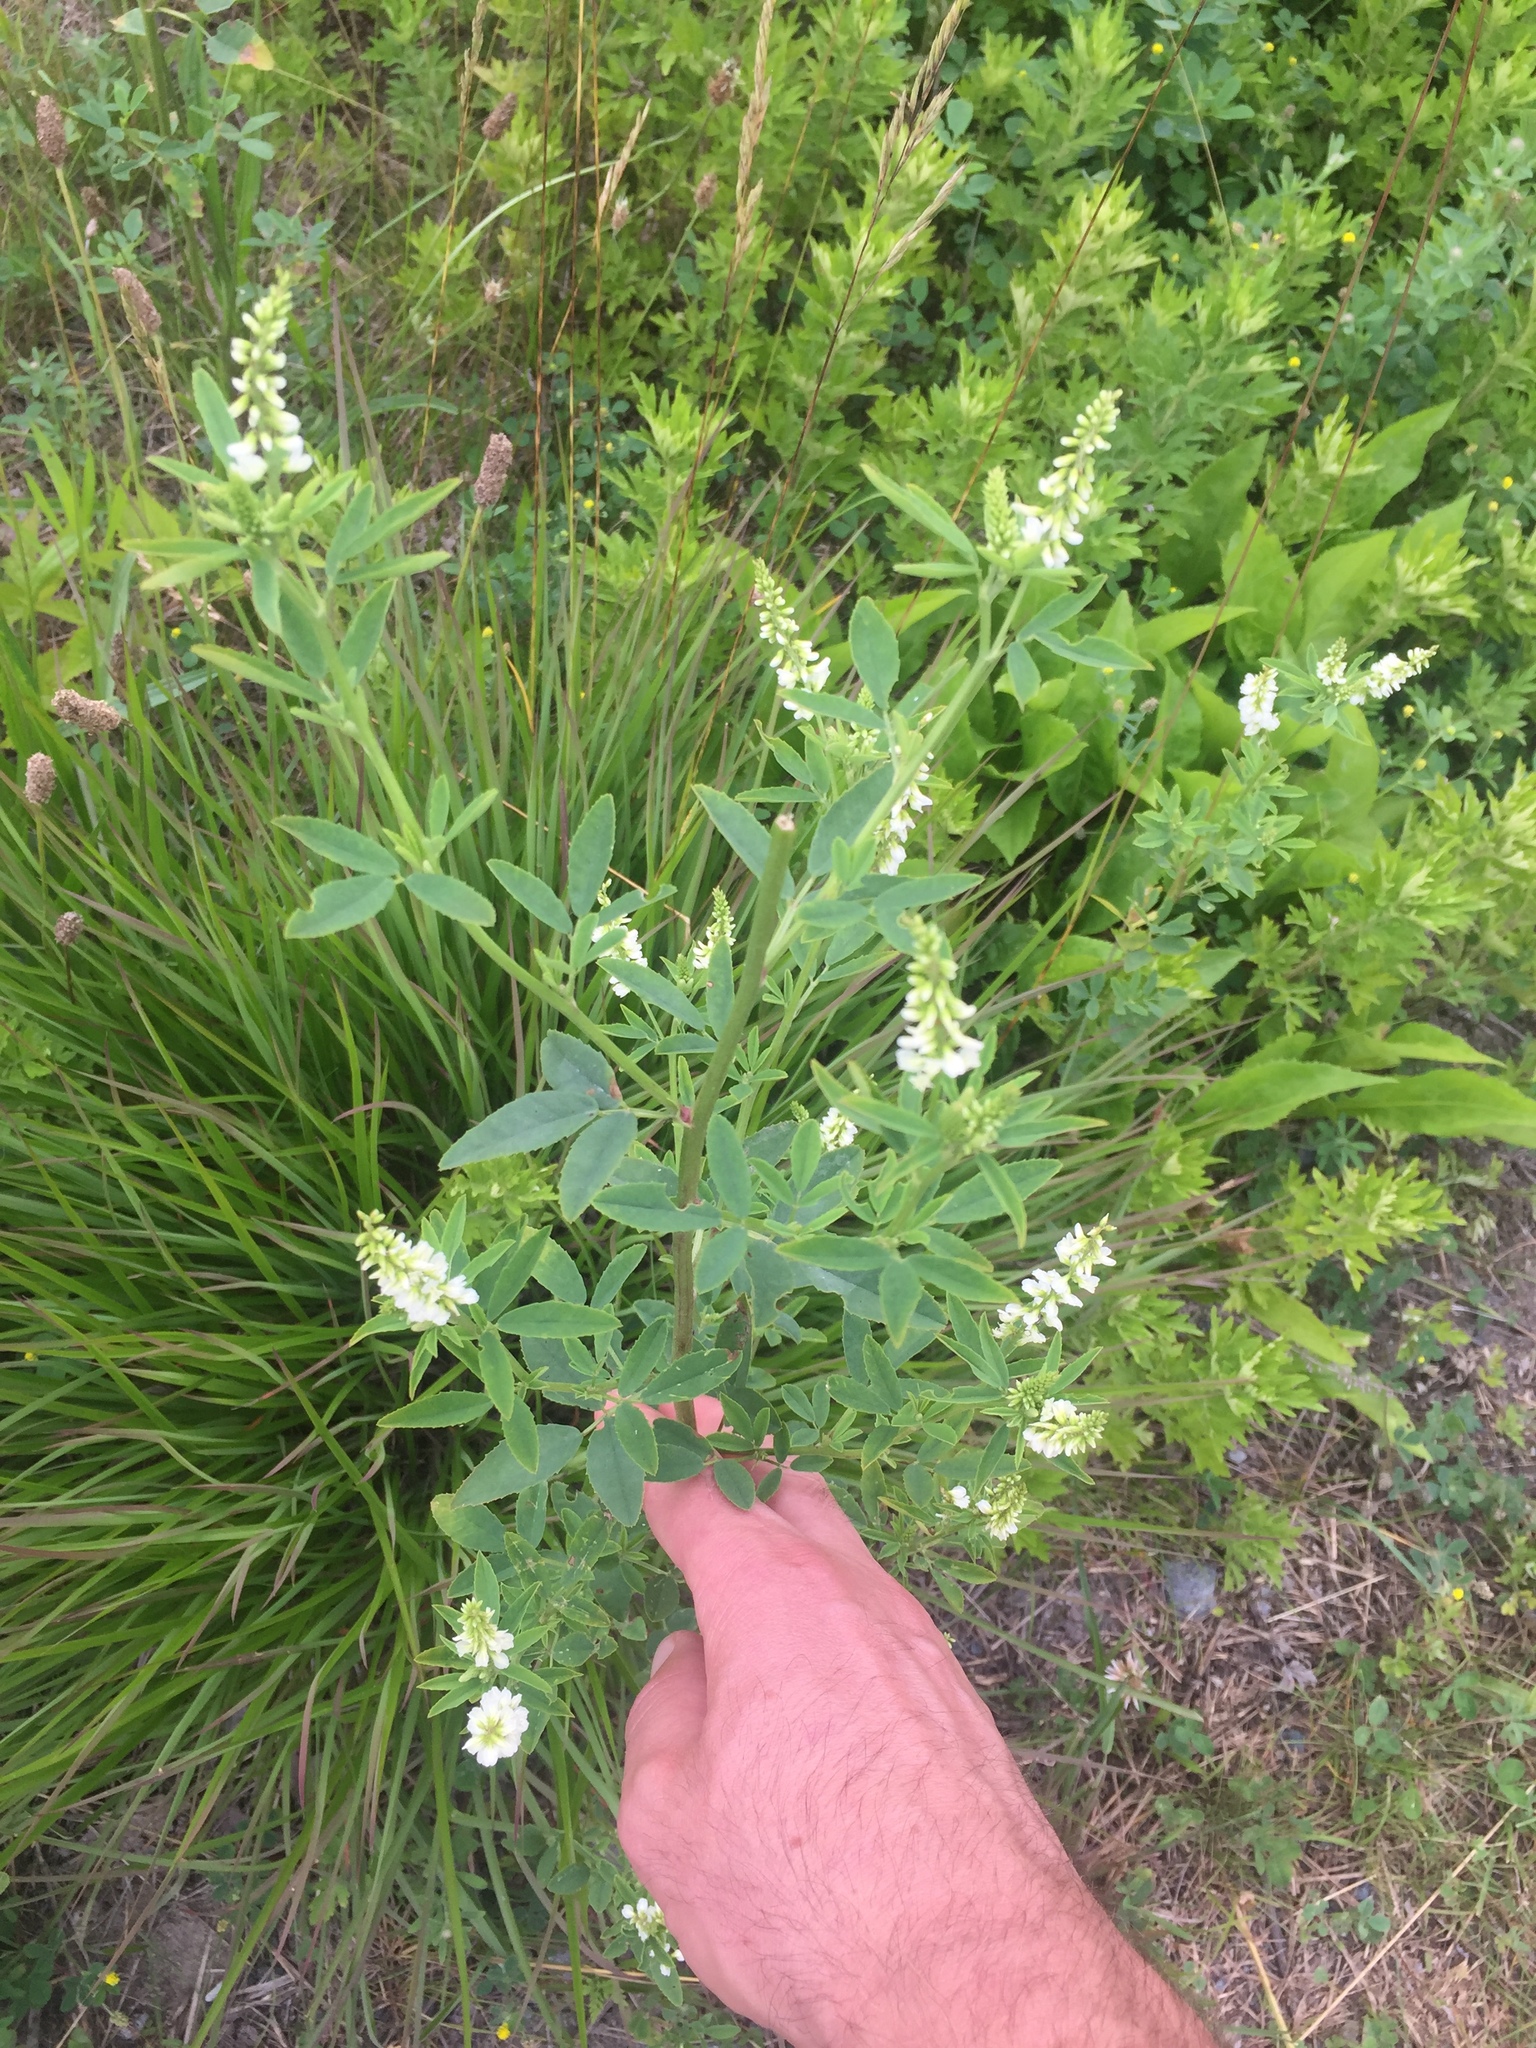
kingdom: Plantae
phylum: Tracheophyta
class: Magnoliopsida
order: Fabales
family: Fabaceae
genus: Melilotus
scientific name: Melilotus albus
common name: White melilot
